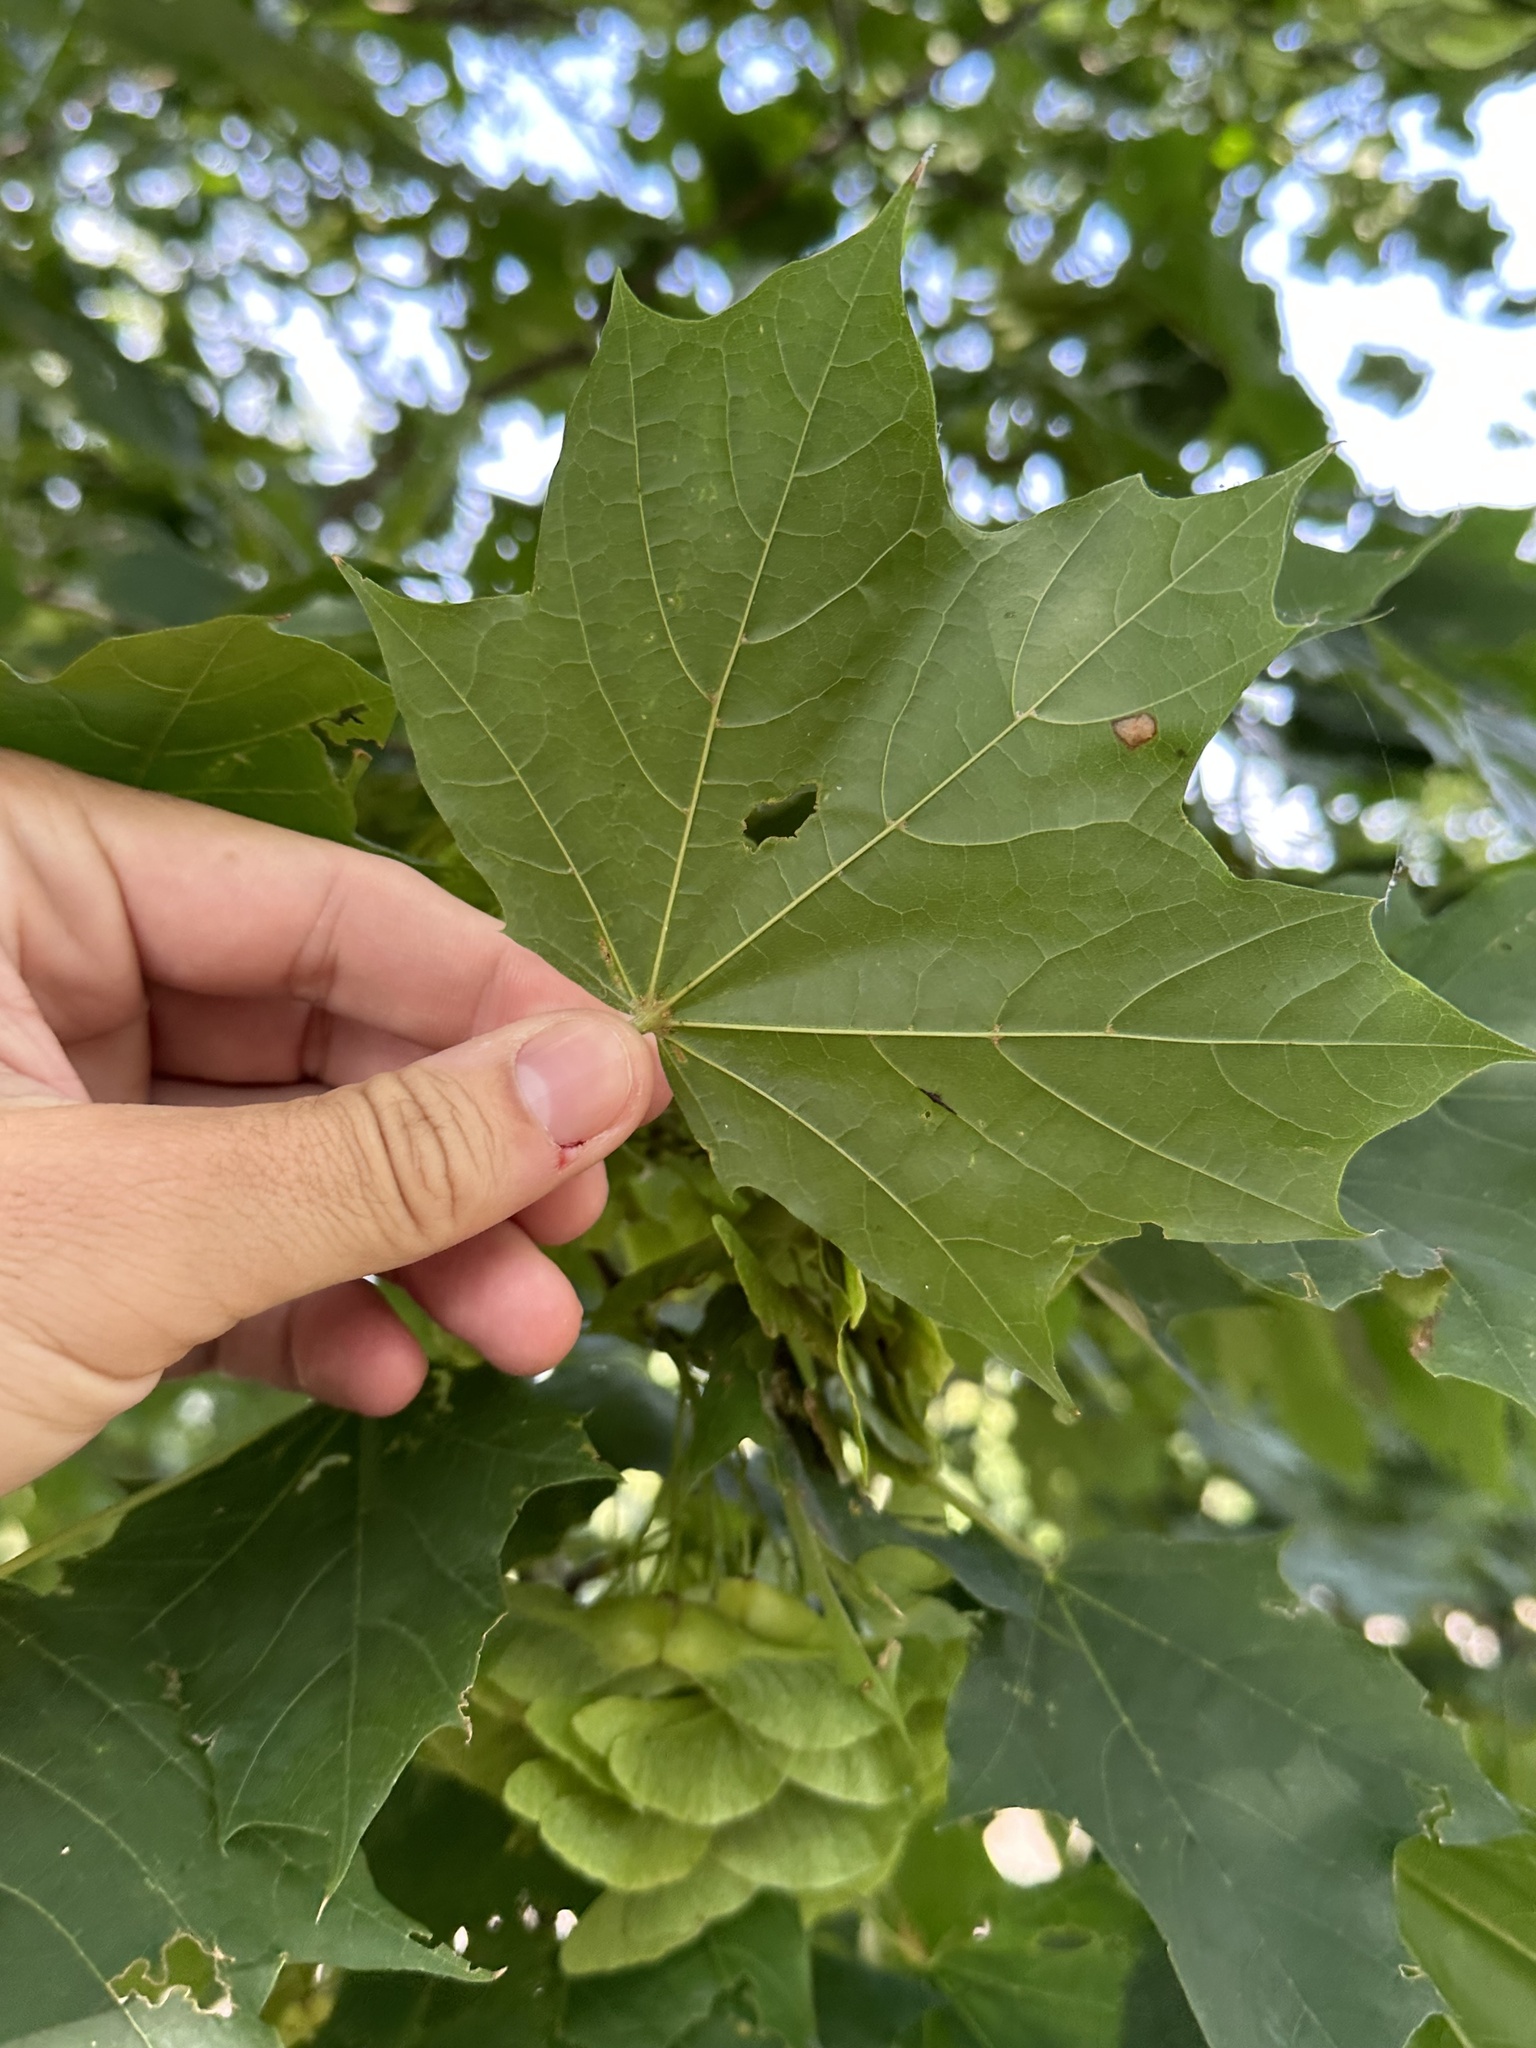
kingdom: Plantae
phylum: Tracheophyta
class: Magnoliopsida
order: Sapindales
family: Sapindaceae
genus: Acer
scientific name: Acer platanoides
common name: Norway maple
